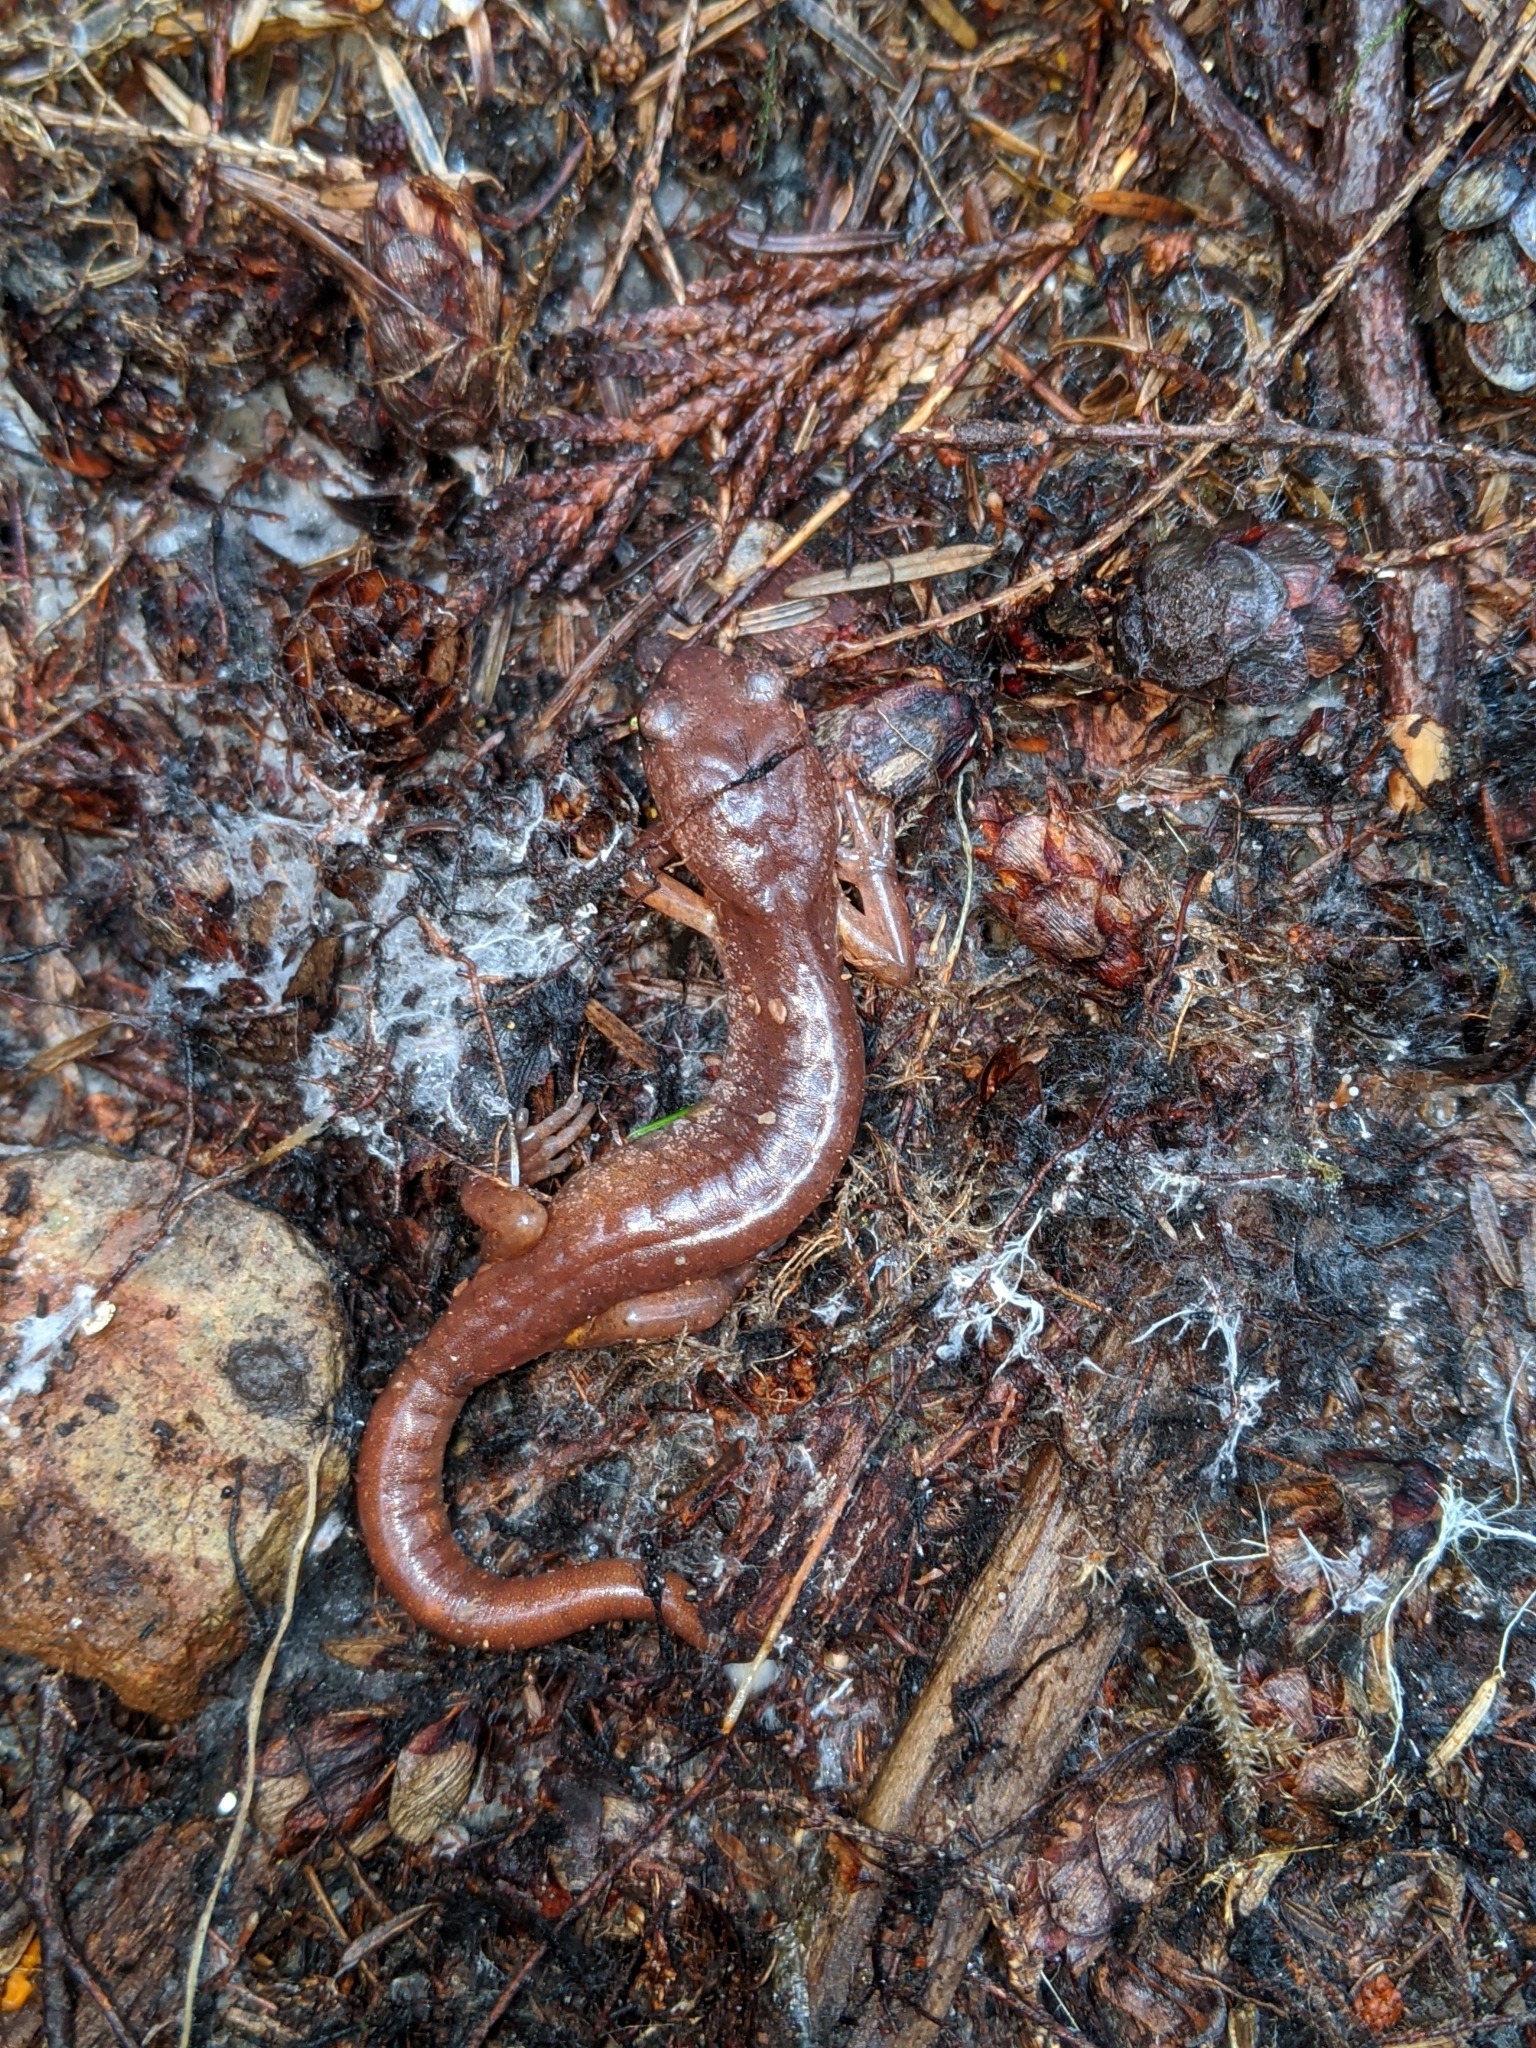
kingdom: Animalia
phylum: Chordata
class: Amphibia
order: Caudata
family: Plethodontidae
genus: Ensatina
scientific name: Ensatina eschscholtzii
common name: Ensatina
